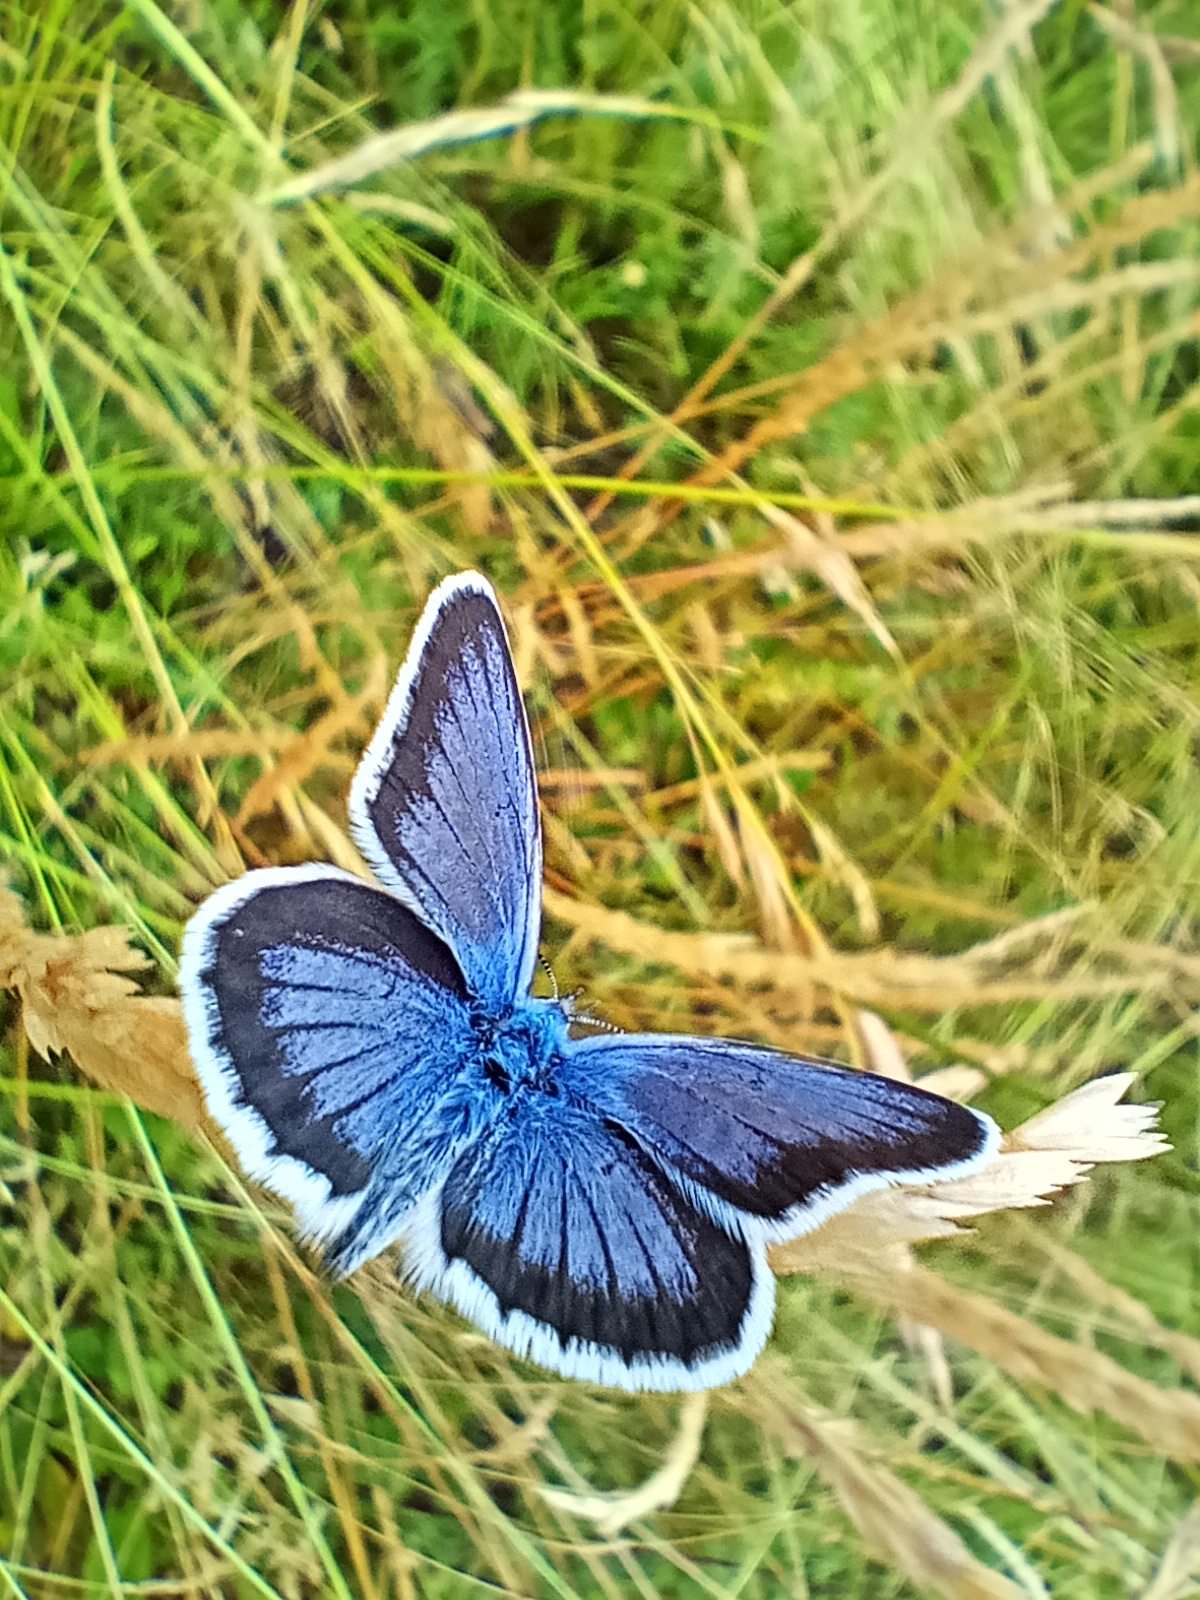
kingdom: Animalia
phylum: Arthropoda
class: Insecta
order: Lepidoptera
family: Lycaenidae
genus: Plebejus
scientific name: Plebejus argus
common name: Silver-studded blue
